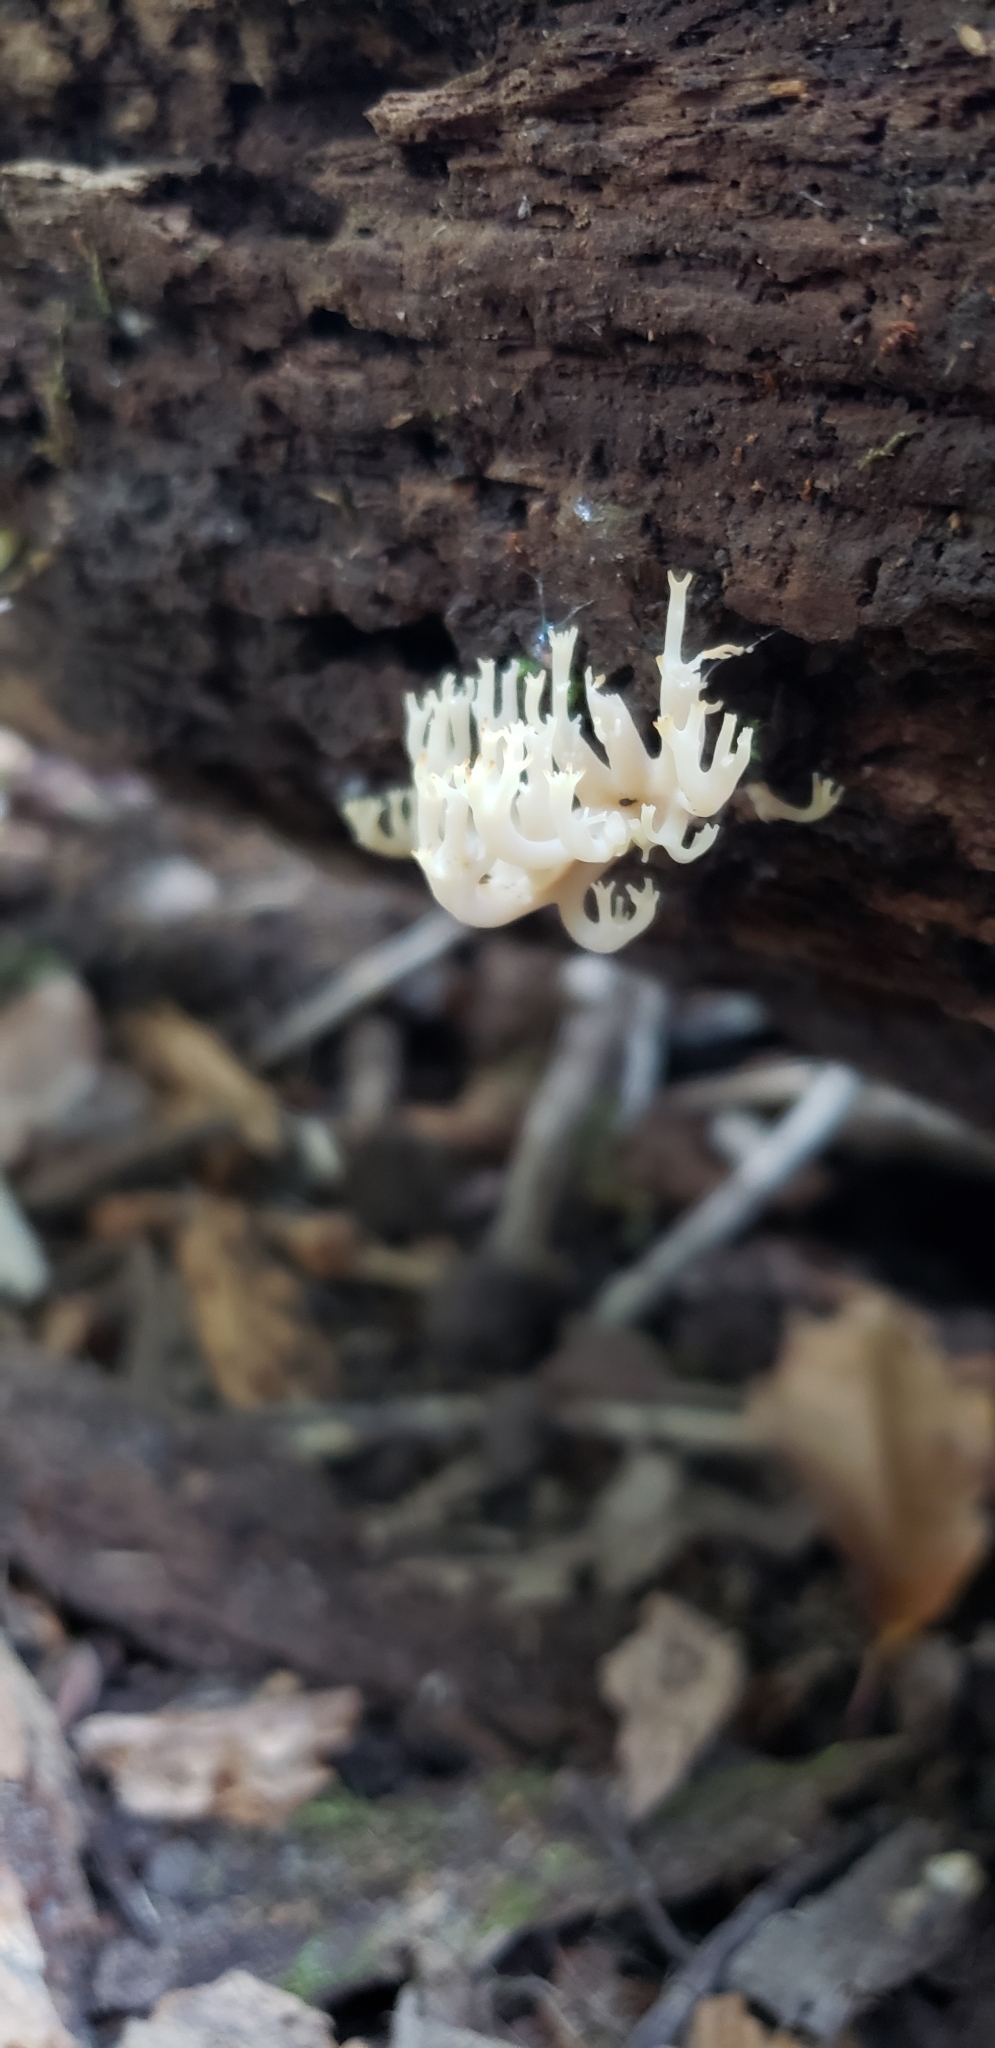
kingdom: Fungi
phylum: Basidiomycota
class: Agaricomycetes
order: Russulales
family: Auriscalpiaceae
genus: Artomyces
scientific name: Artomyces pyxidatus
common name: Crown-tipped coral fungus
